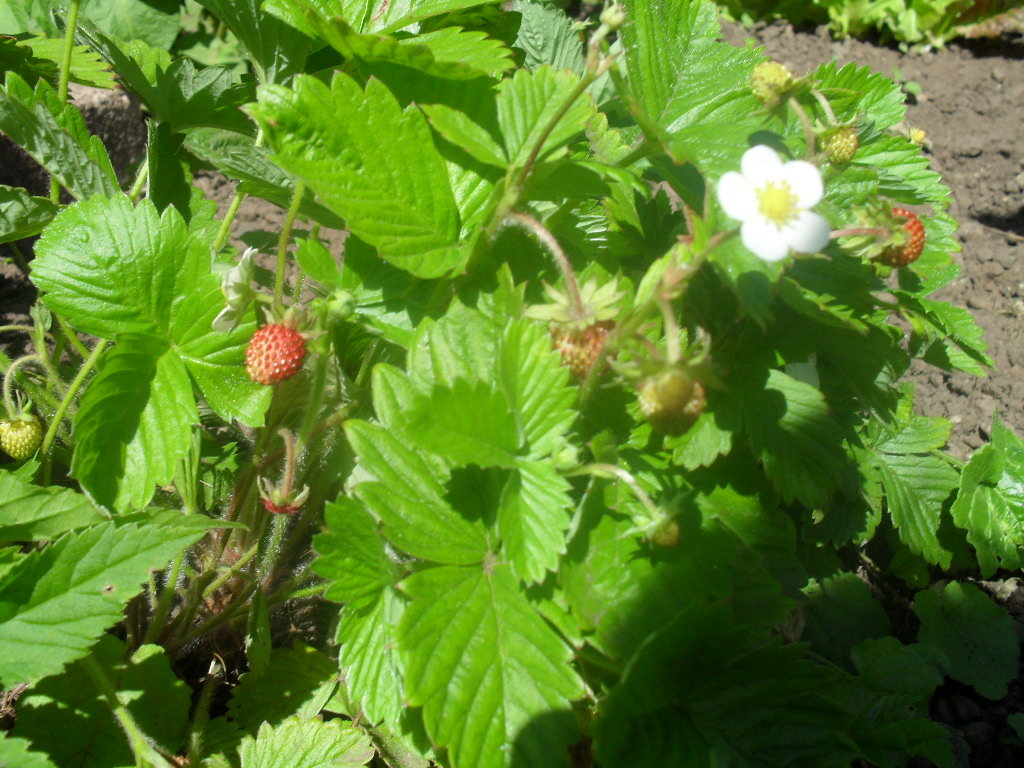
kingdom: Plantae
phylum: Tracheophyta
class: Magnoliopsida
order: Rosales
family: Rosaceae
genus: Fragaria
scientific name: Fragaria vesca
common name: Wild strawberry
